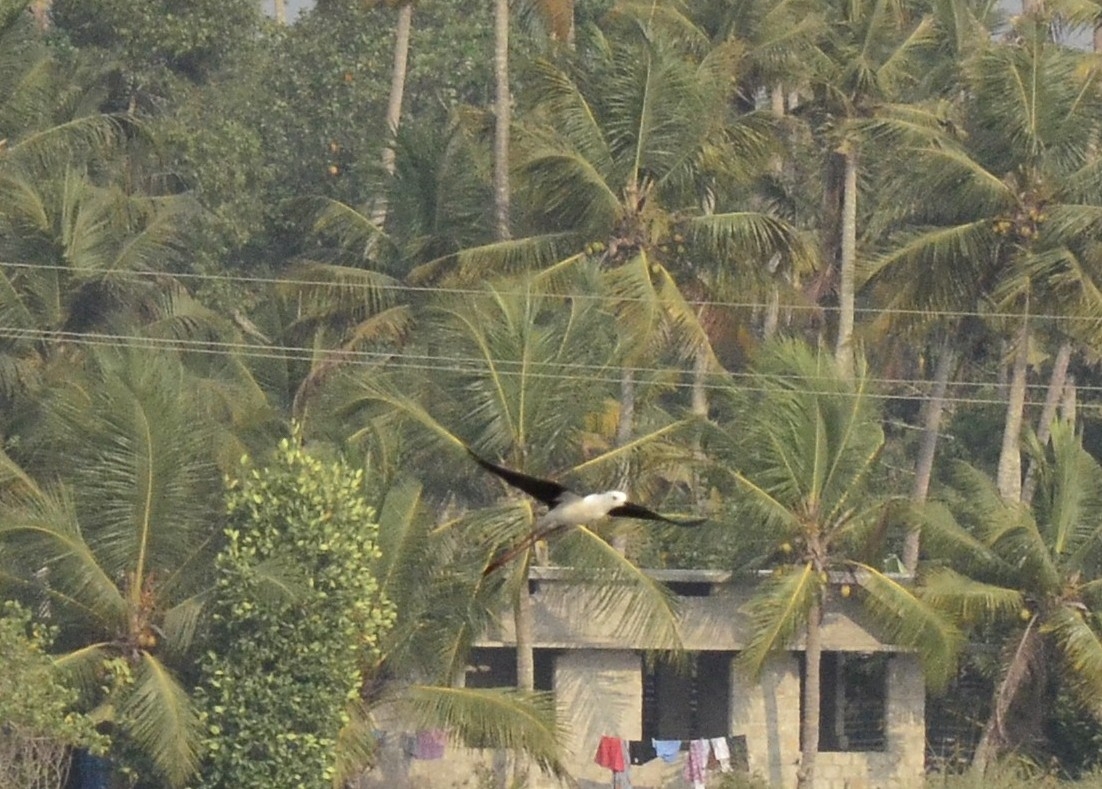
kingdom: Animalia
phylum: Chordata
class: Aves
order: Charadriiformes
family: Recurvirostridae
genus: Himantopus
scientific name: Himantopus himantopus
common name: Black-winged stilt
